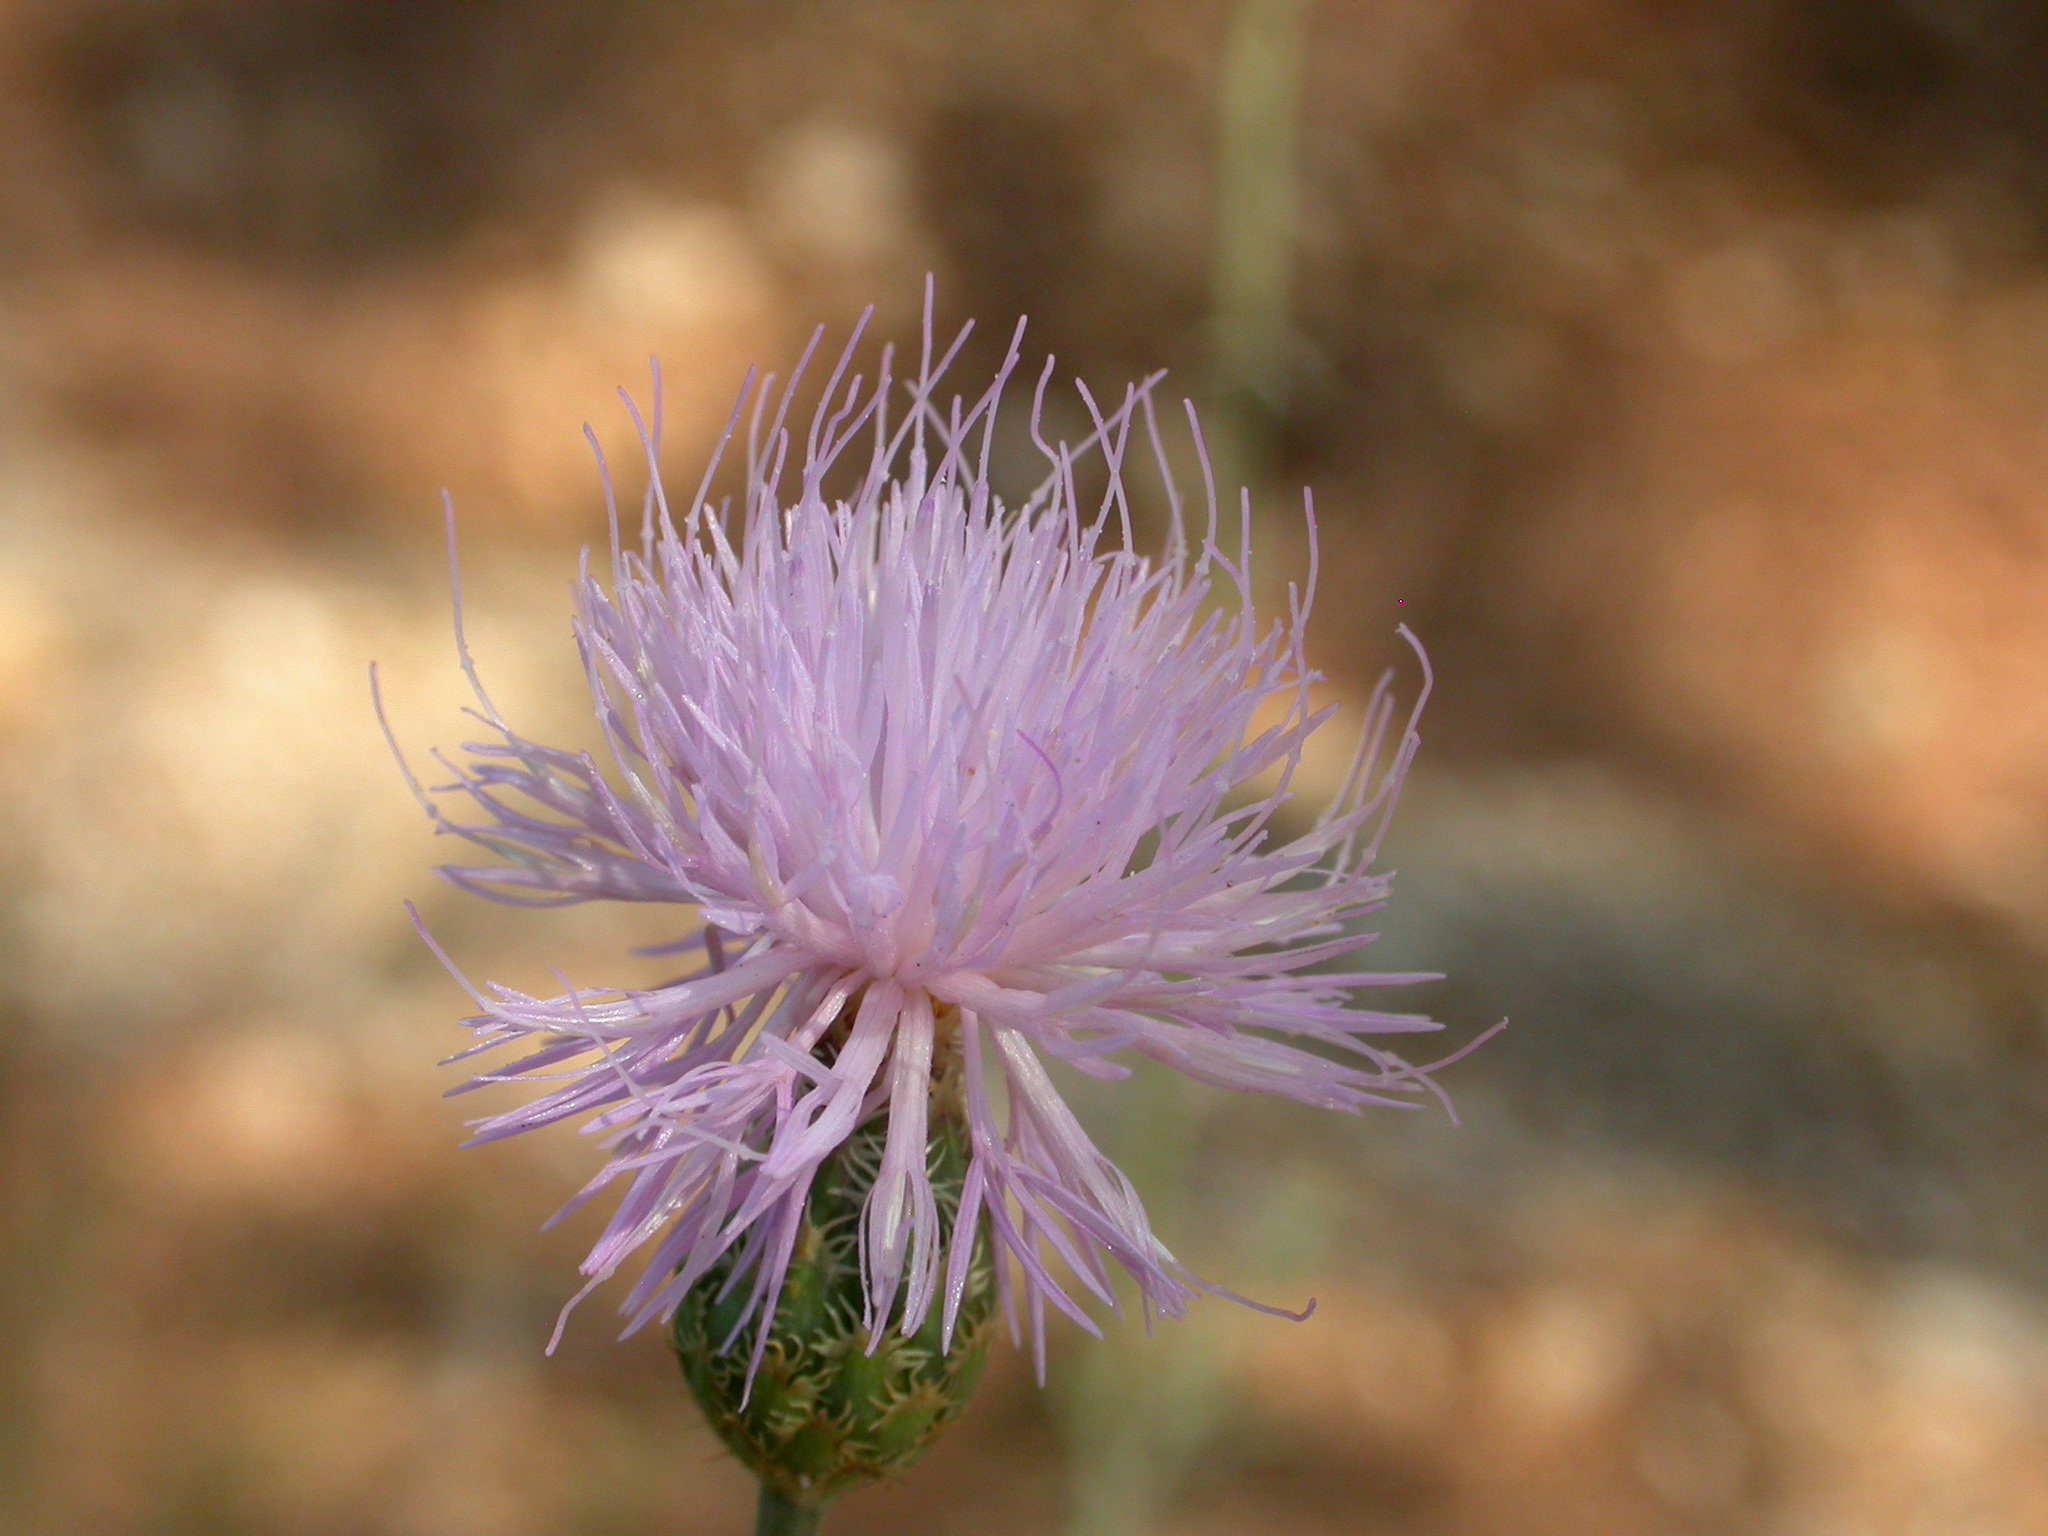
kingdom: Plantae
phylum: Tracheophyta
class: Magnoliopsida
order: Asterales
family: Asteraceae
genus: Cheirolophus
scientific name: Cheirolophus intybaceus
